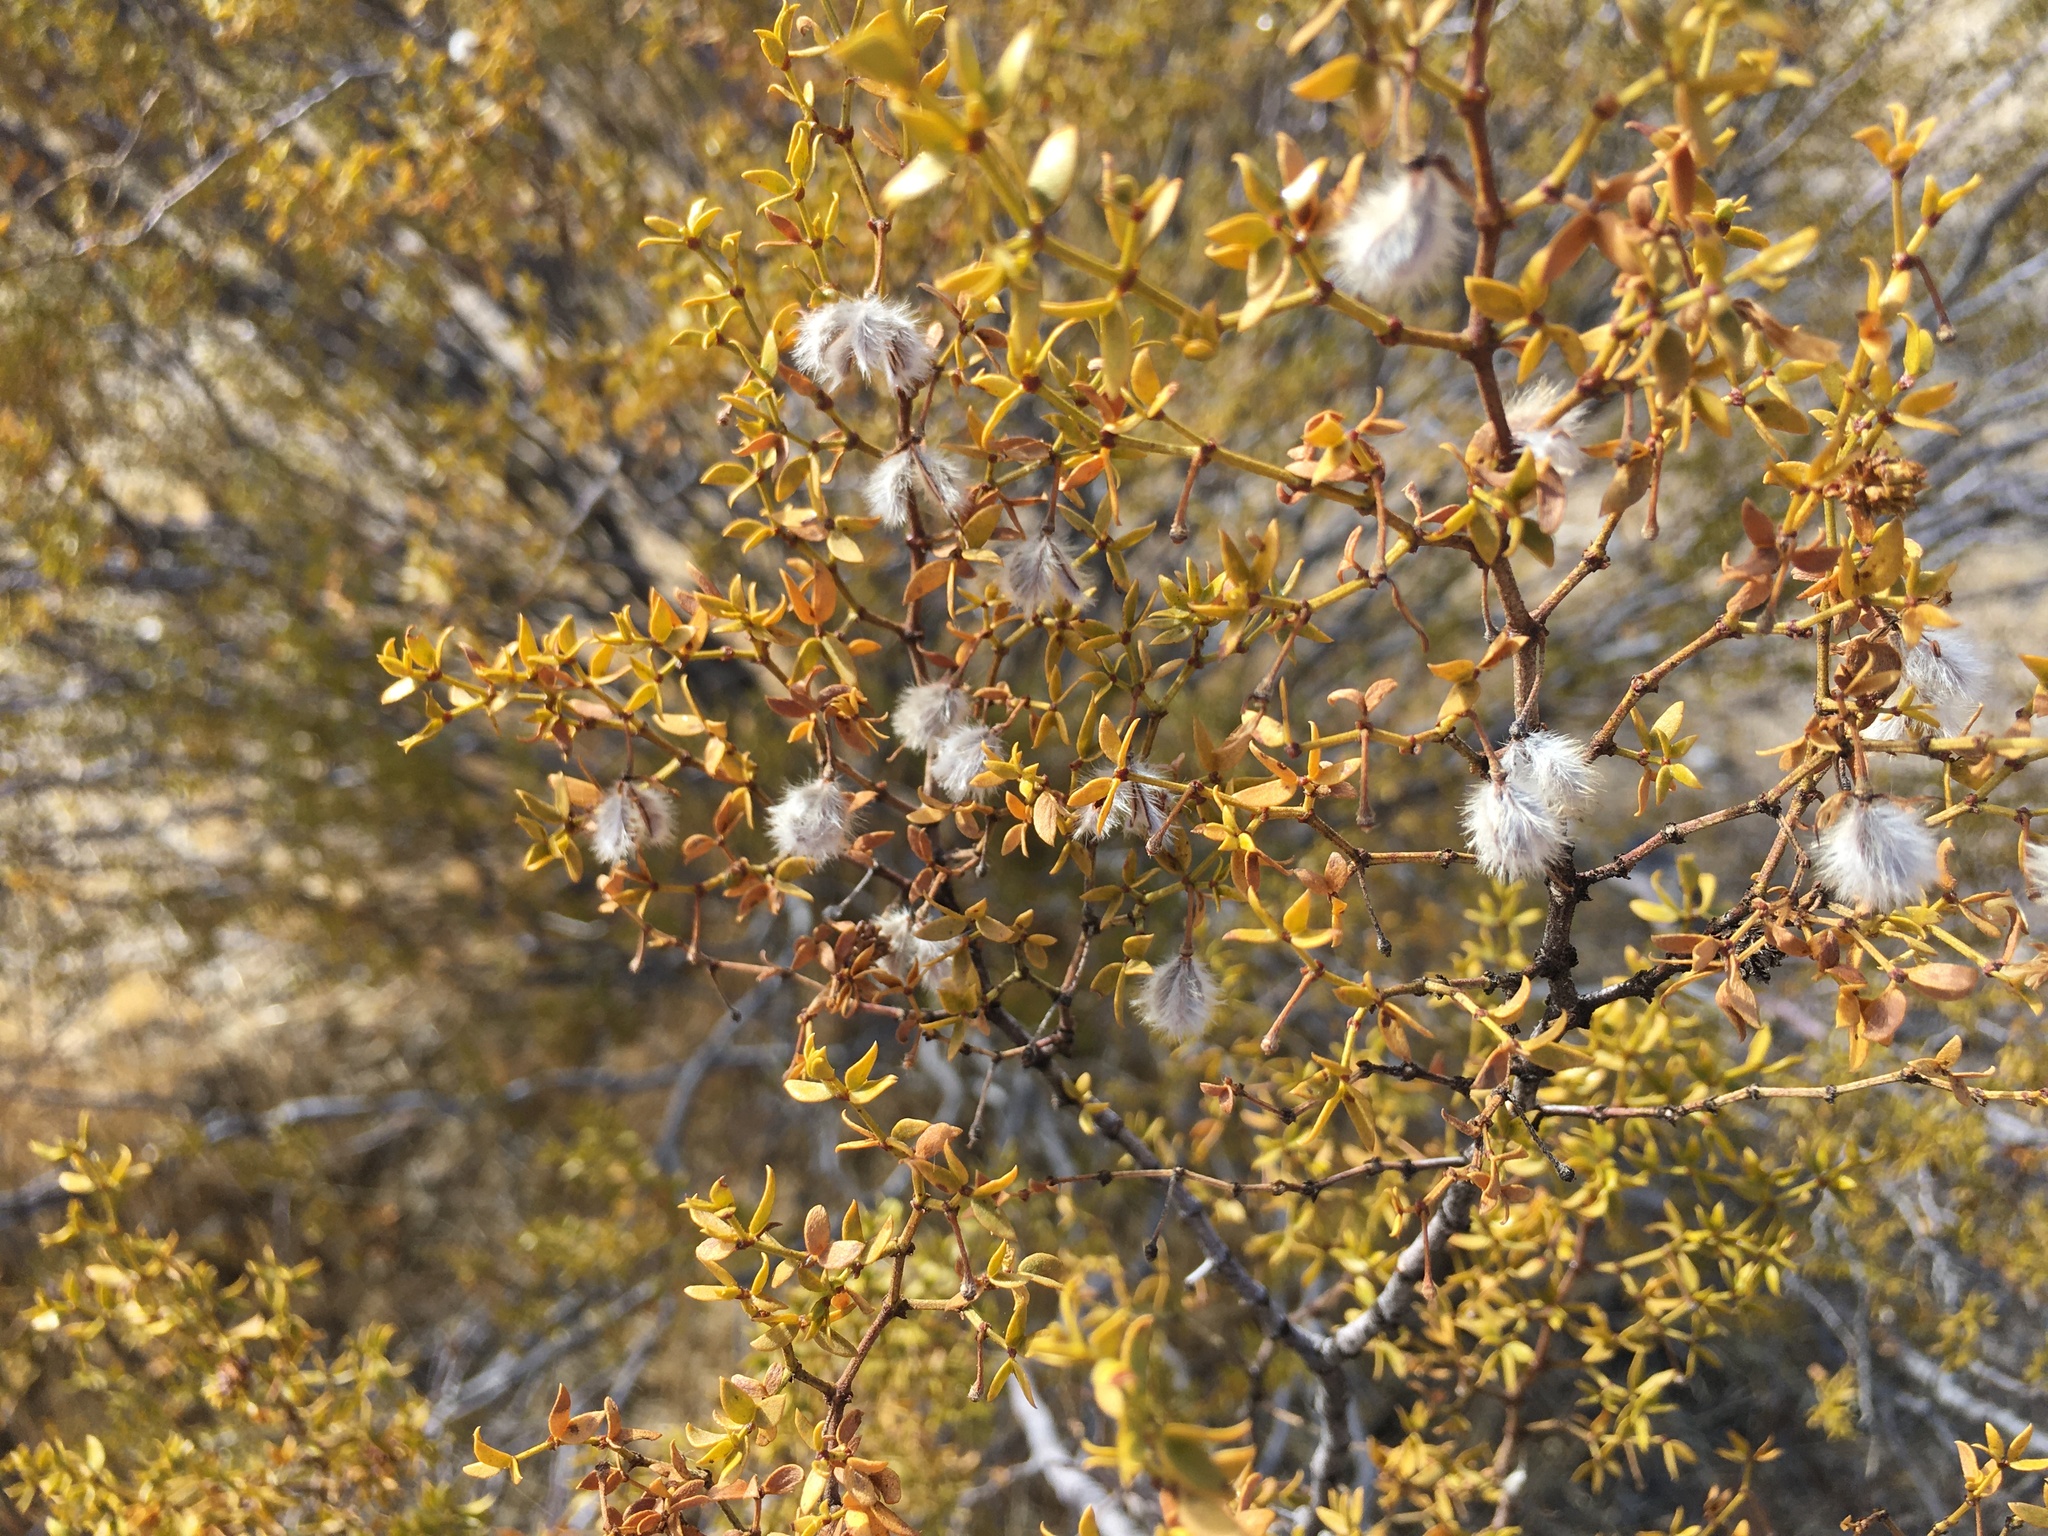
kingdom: Plantae
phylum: Tracheophyta
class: Magnoliopsida
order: Zygophyllales
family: Zygophyllaceae
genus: Larrea
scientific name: Larrea tridentata
